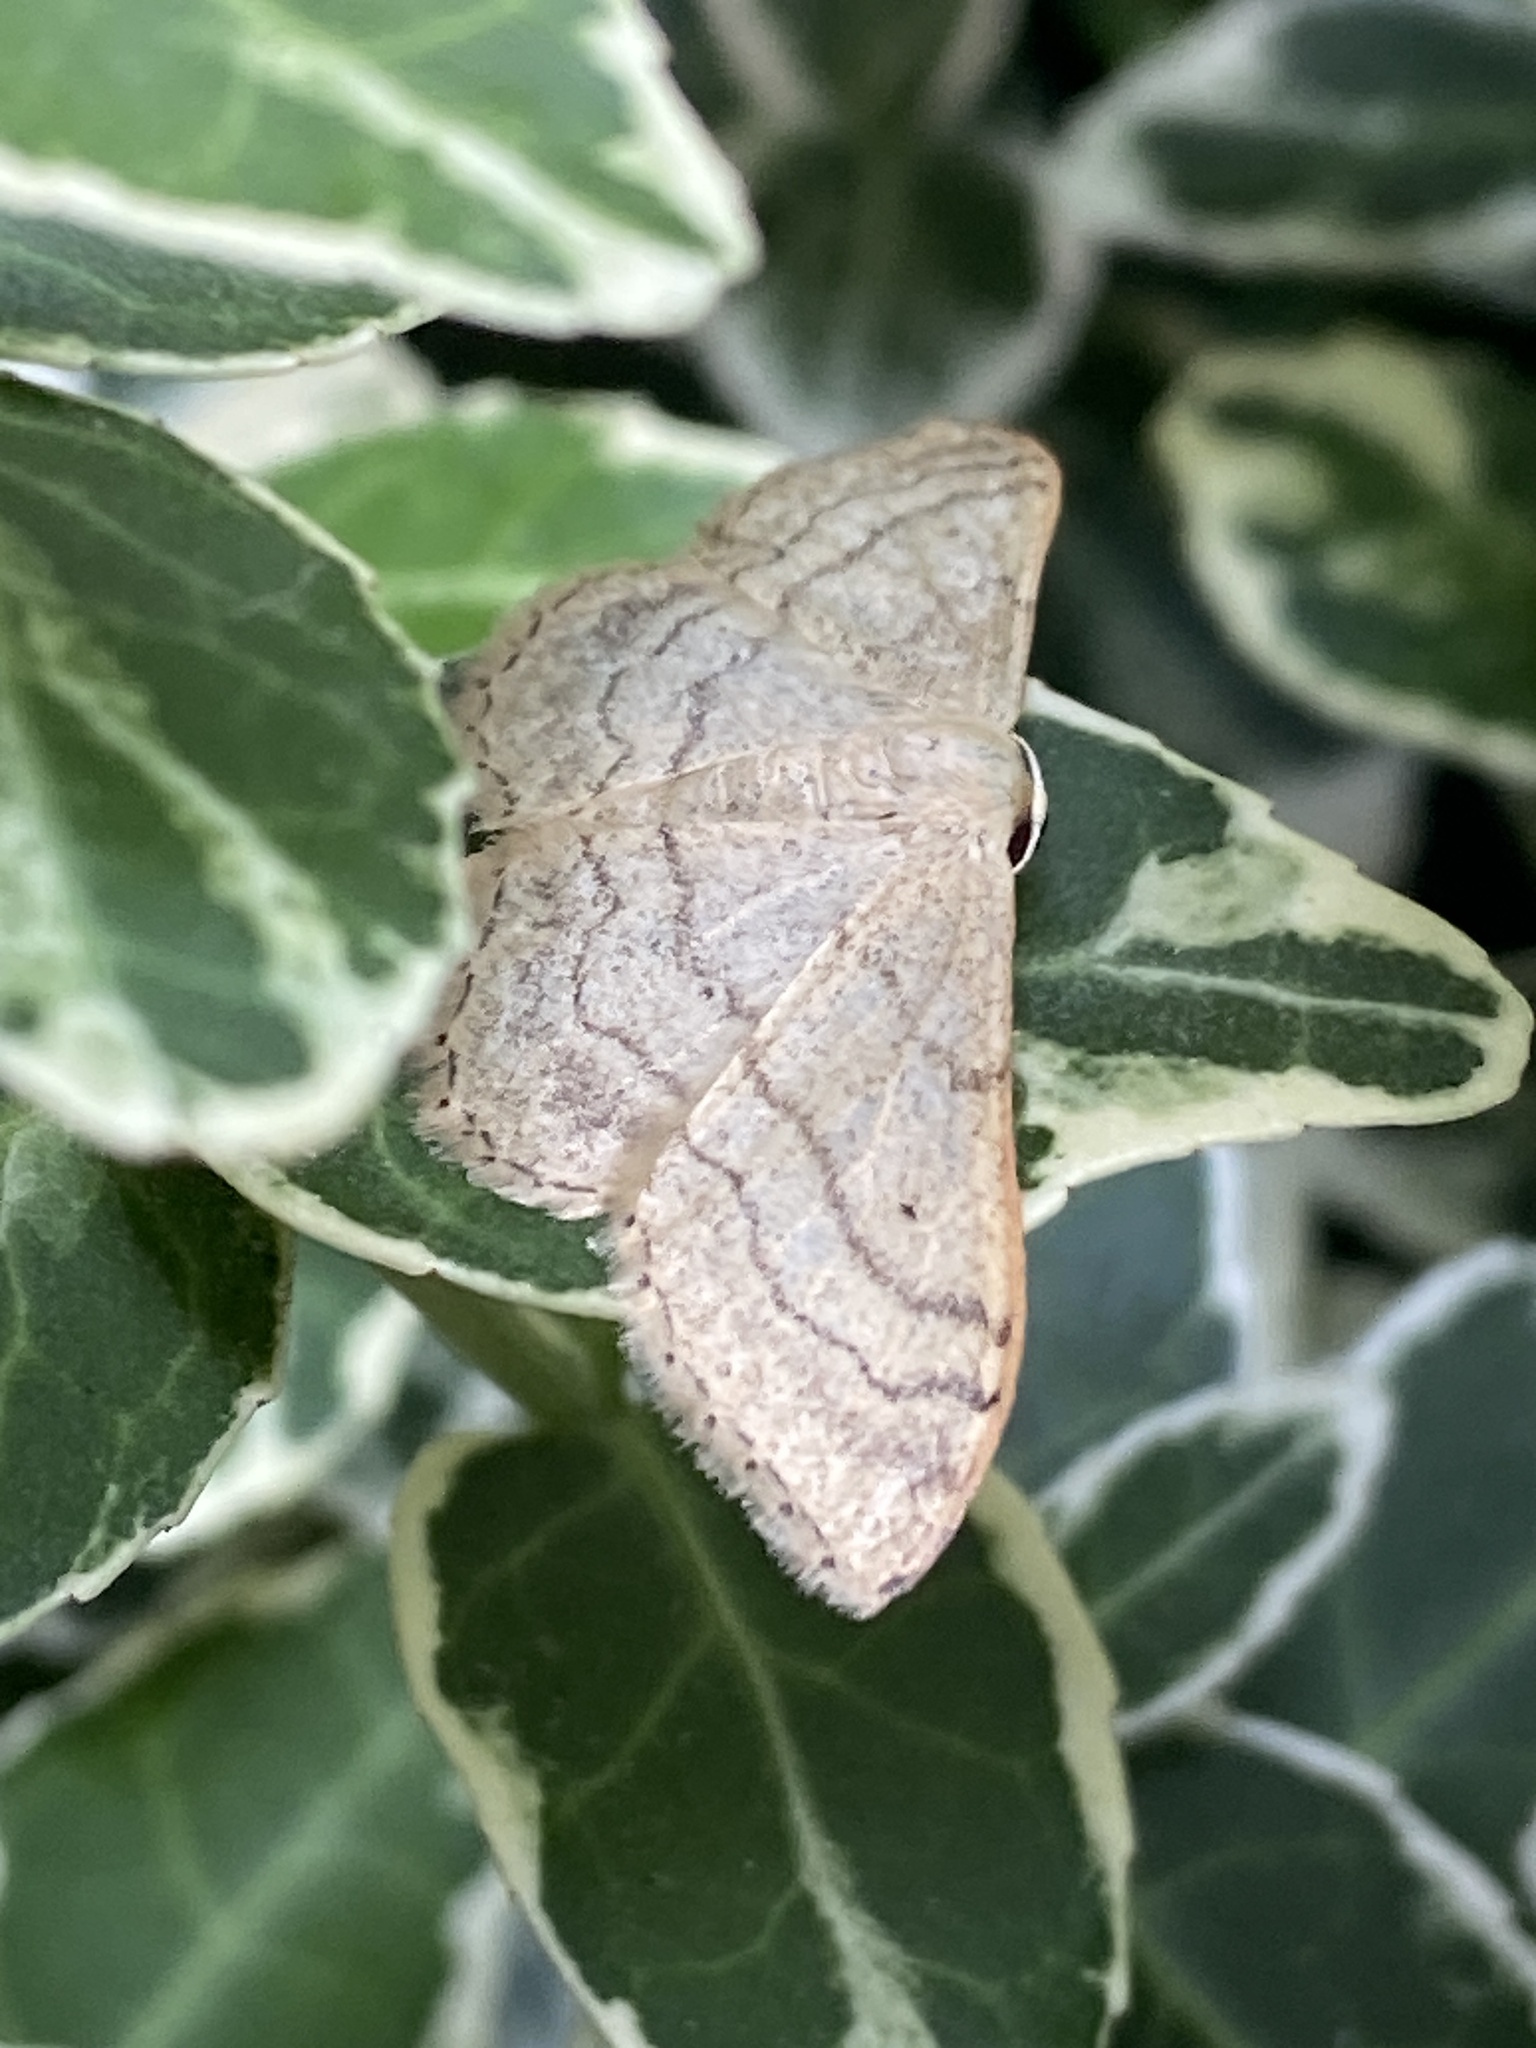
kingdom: Animalia
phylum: Arthropoda
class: Insecta
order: Lepidoptera
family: Geometridae
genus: Idaea
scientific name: Idaea aversata
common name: Riband wave
